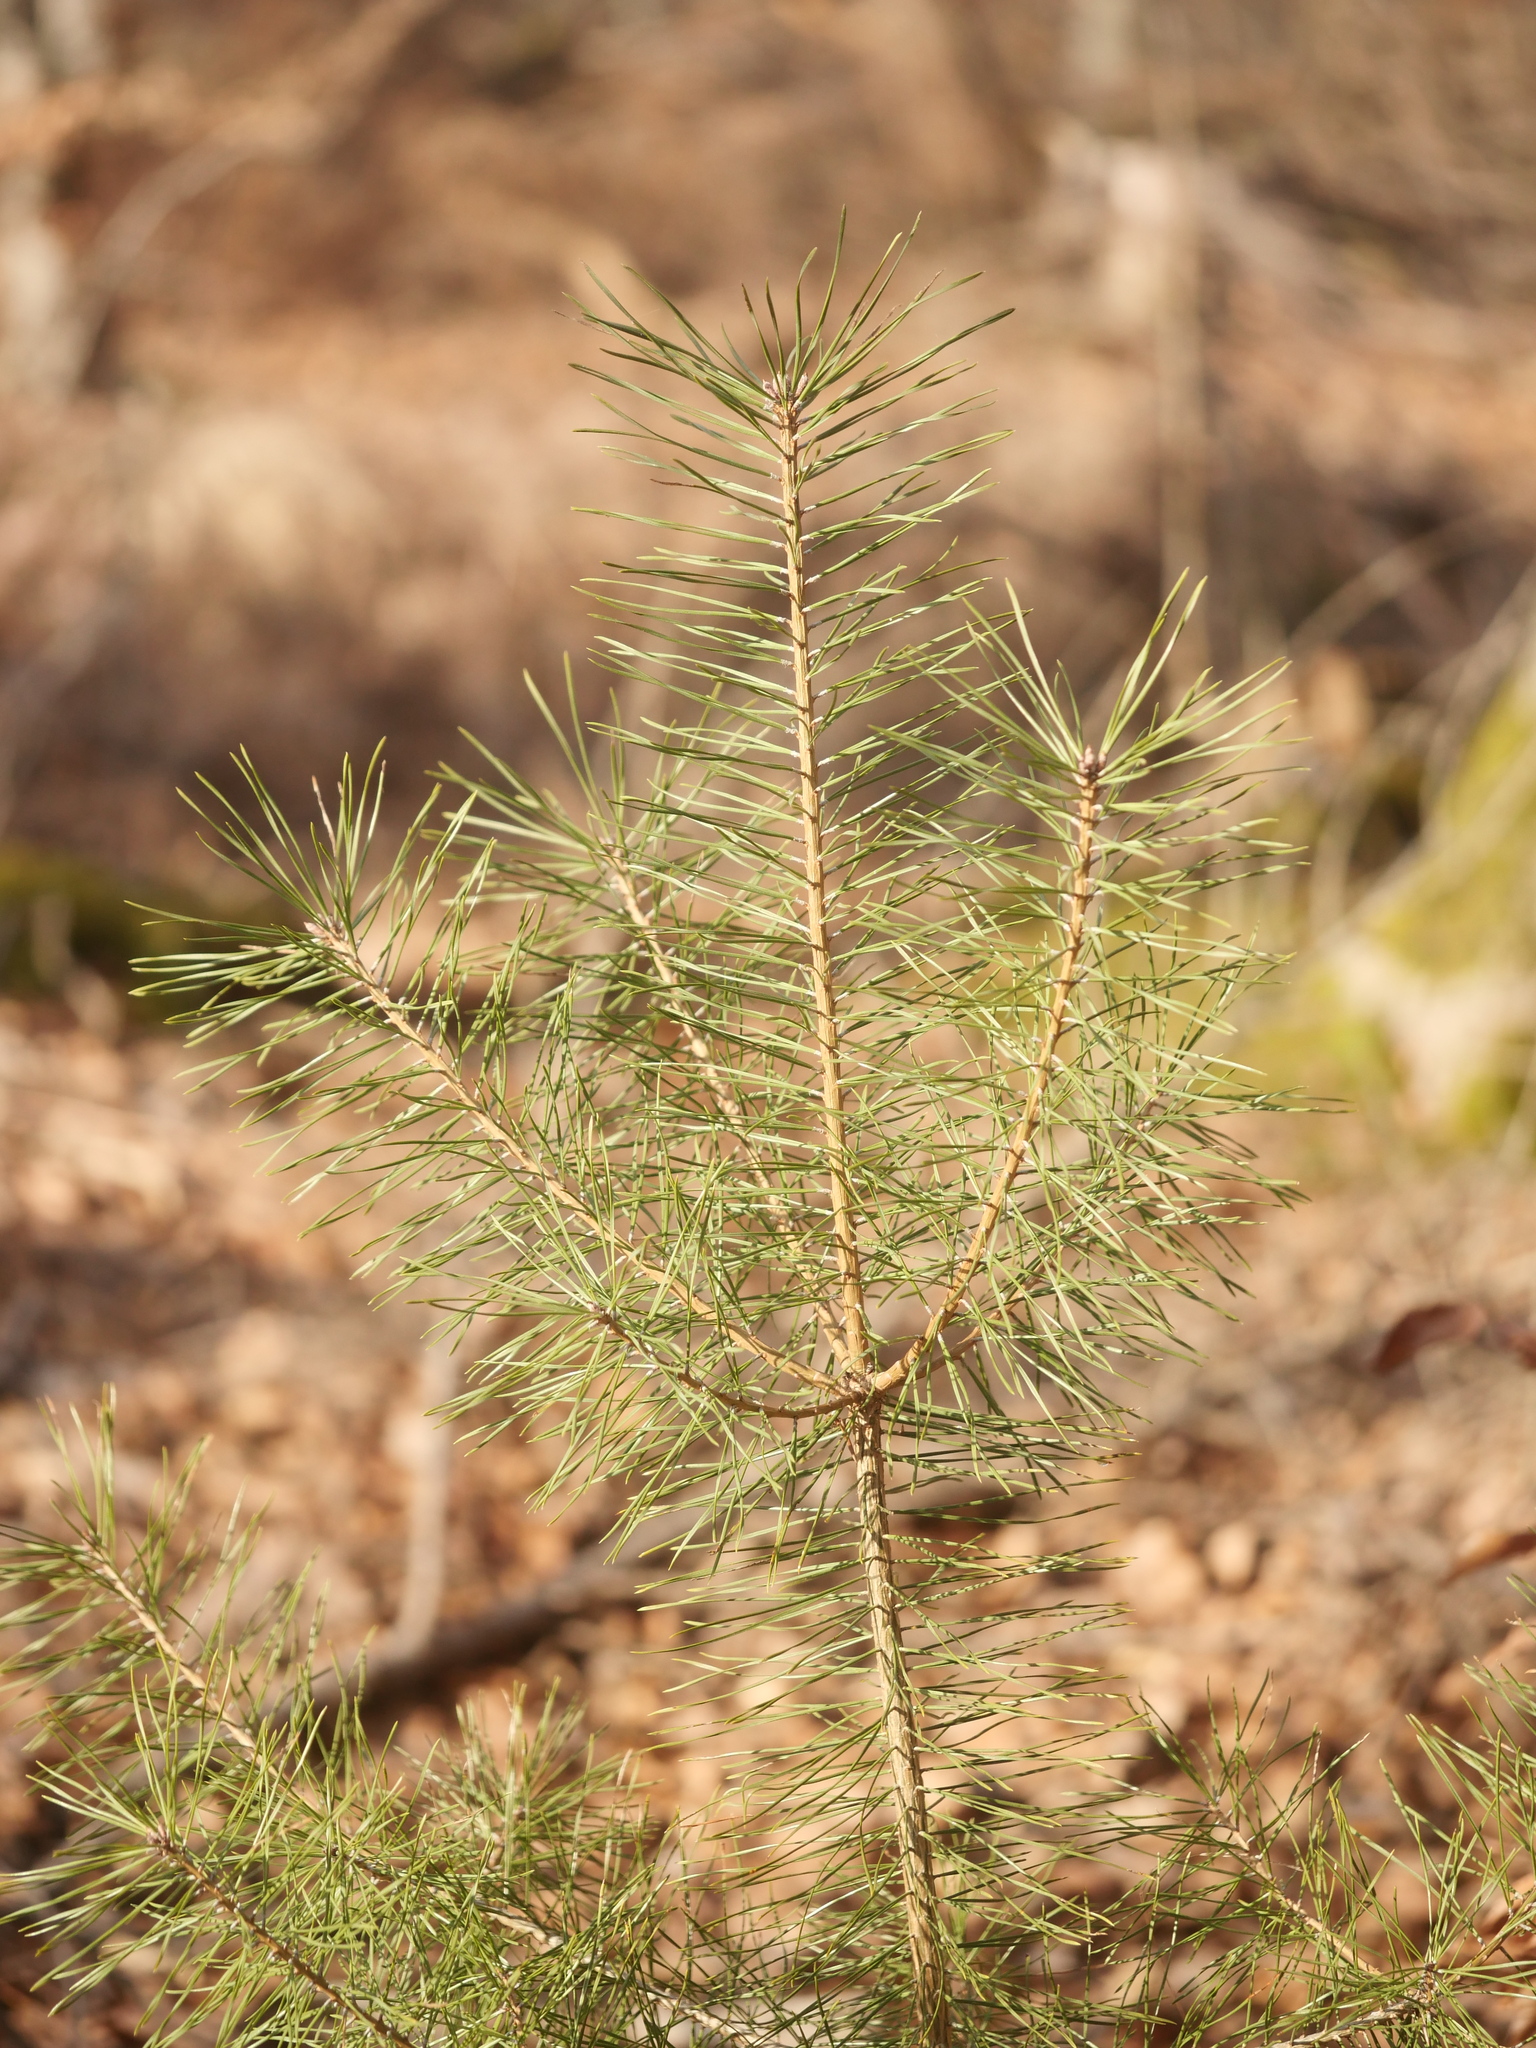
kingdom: Plantae
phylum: Tracheophyta
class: Pinopsida
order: Pinales
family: Pinaceae
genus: Pinus
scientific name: Pinus sylvestris
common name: Scots pine
